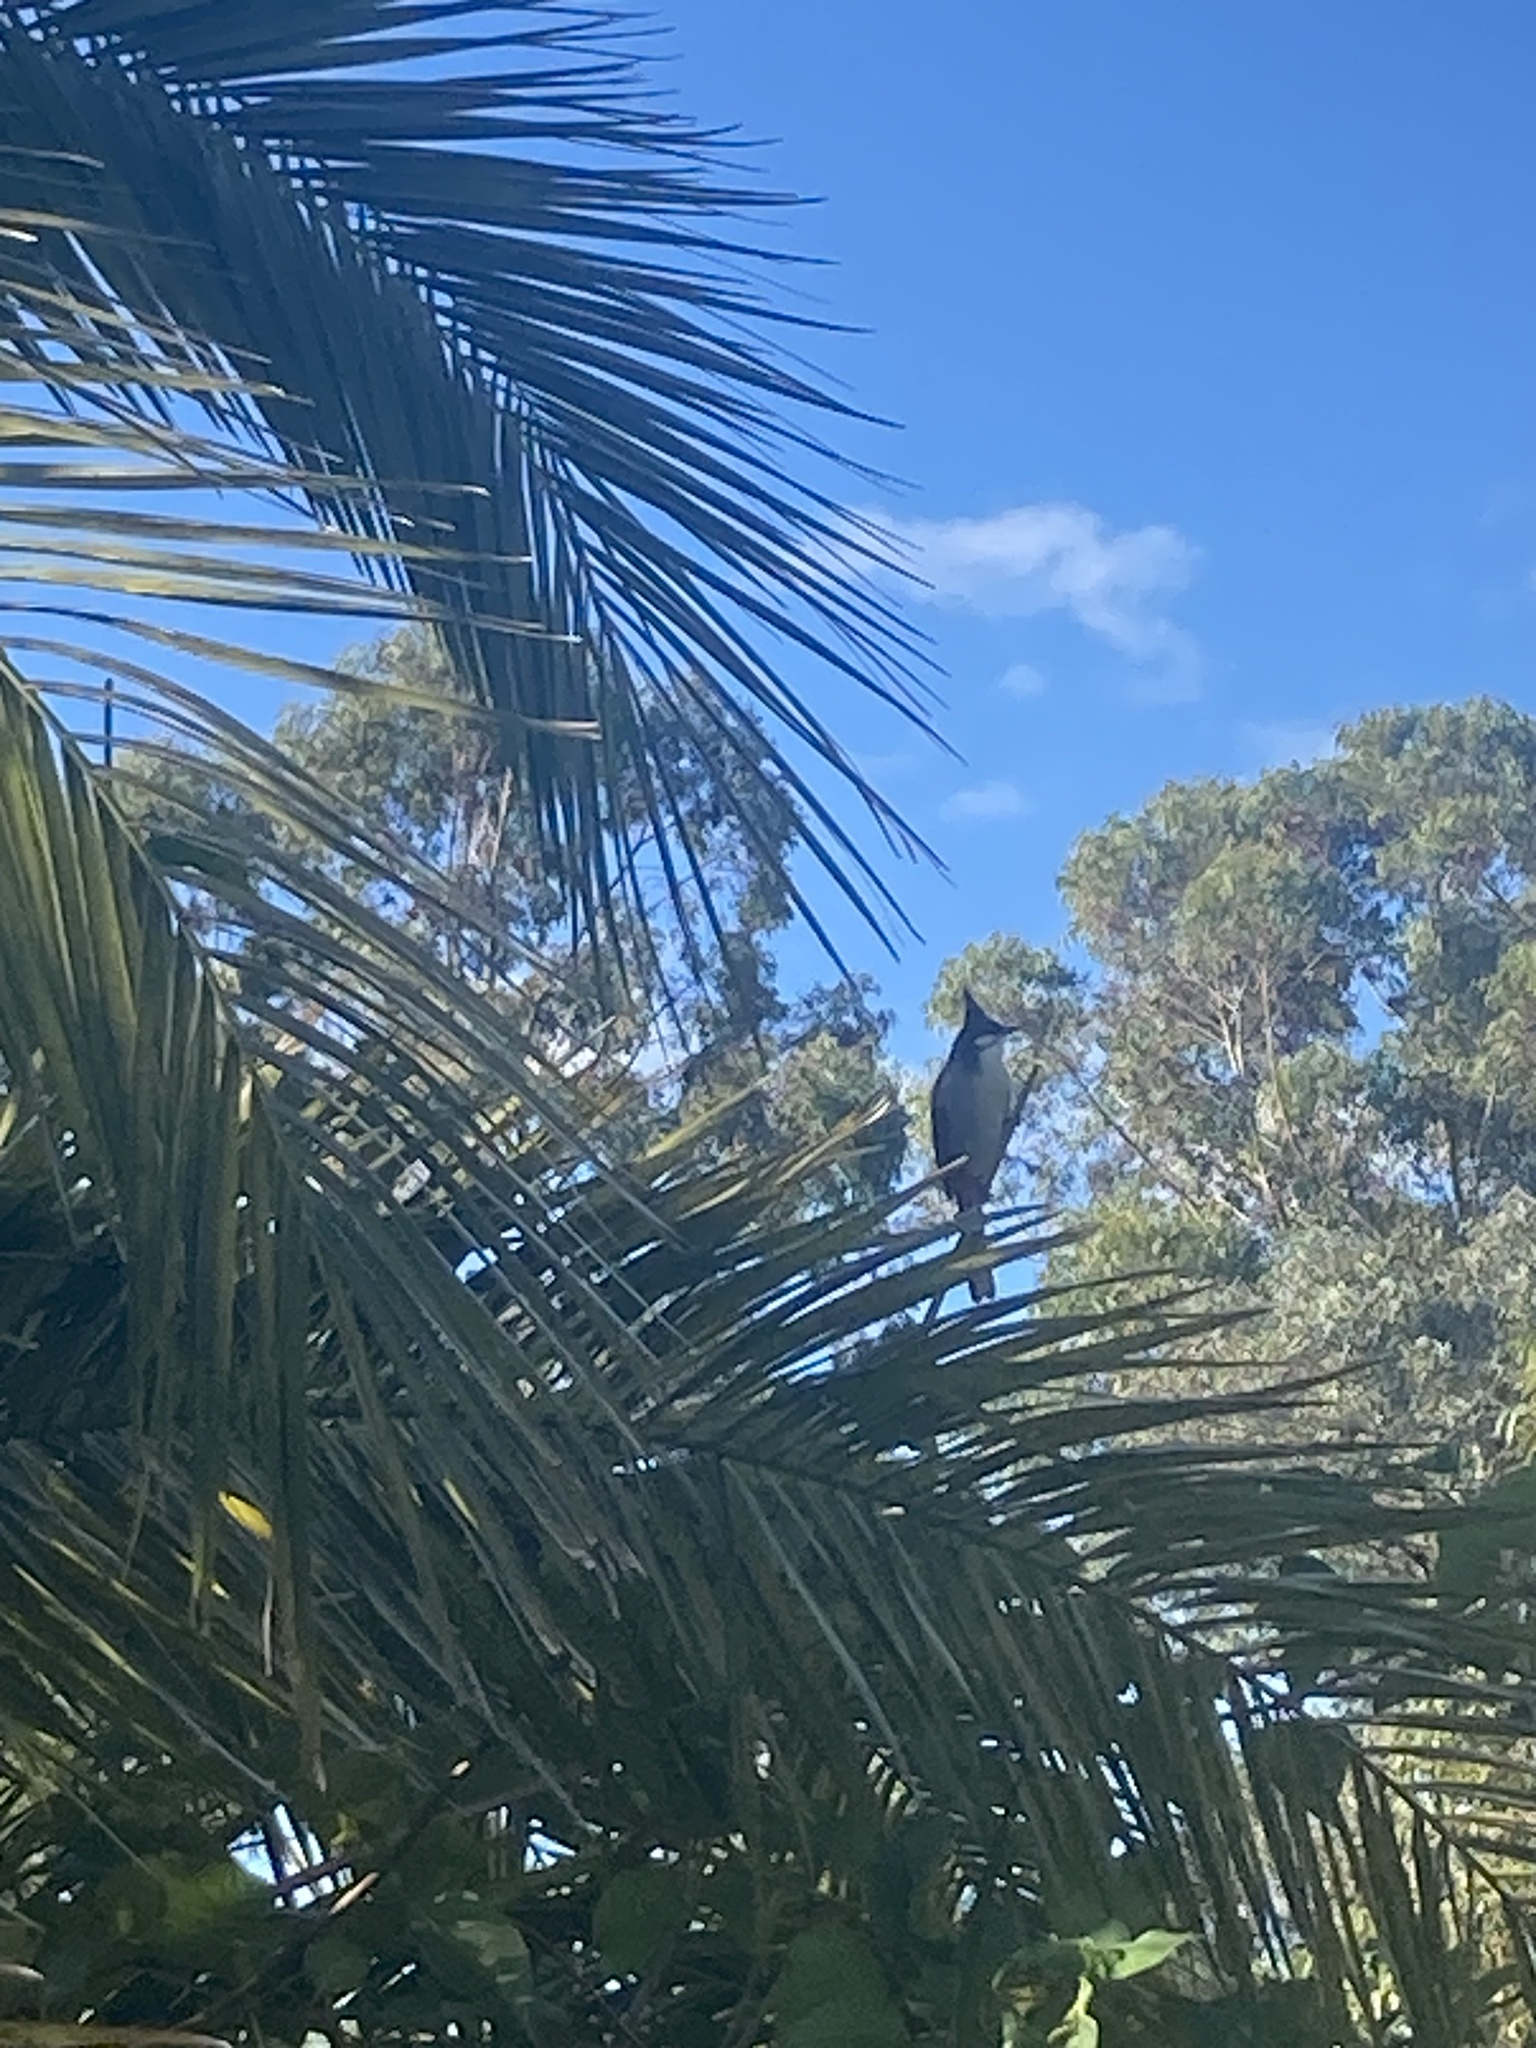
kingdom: Animalia
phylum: Chordata
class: Aves
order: Passeriformes
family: Pycnonotidae
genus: Pycnonotus
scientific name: Pycnonotus jocosus
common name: Red-whiskered bulbul
